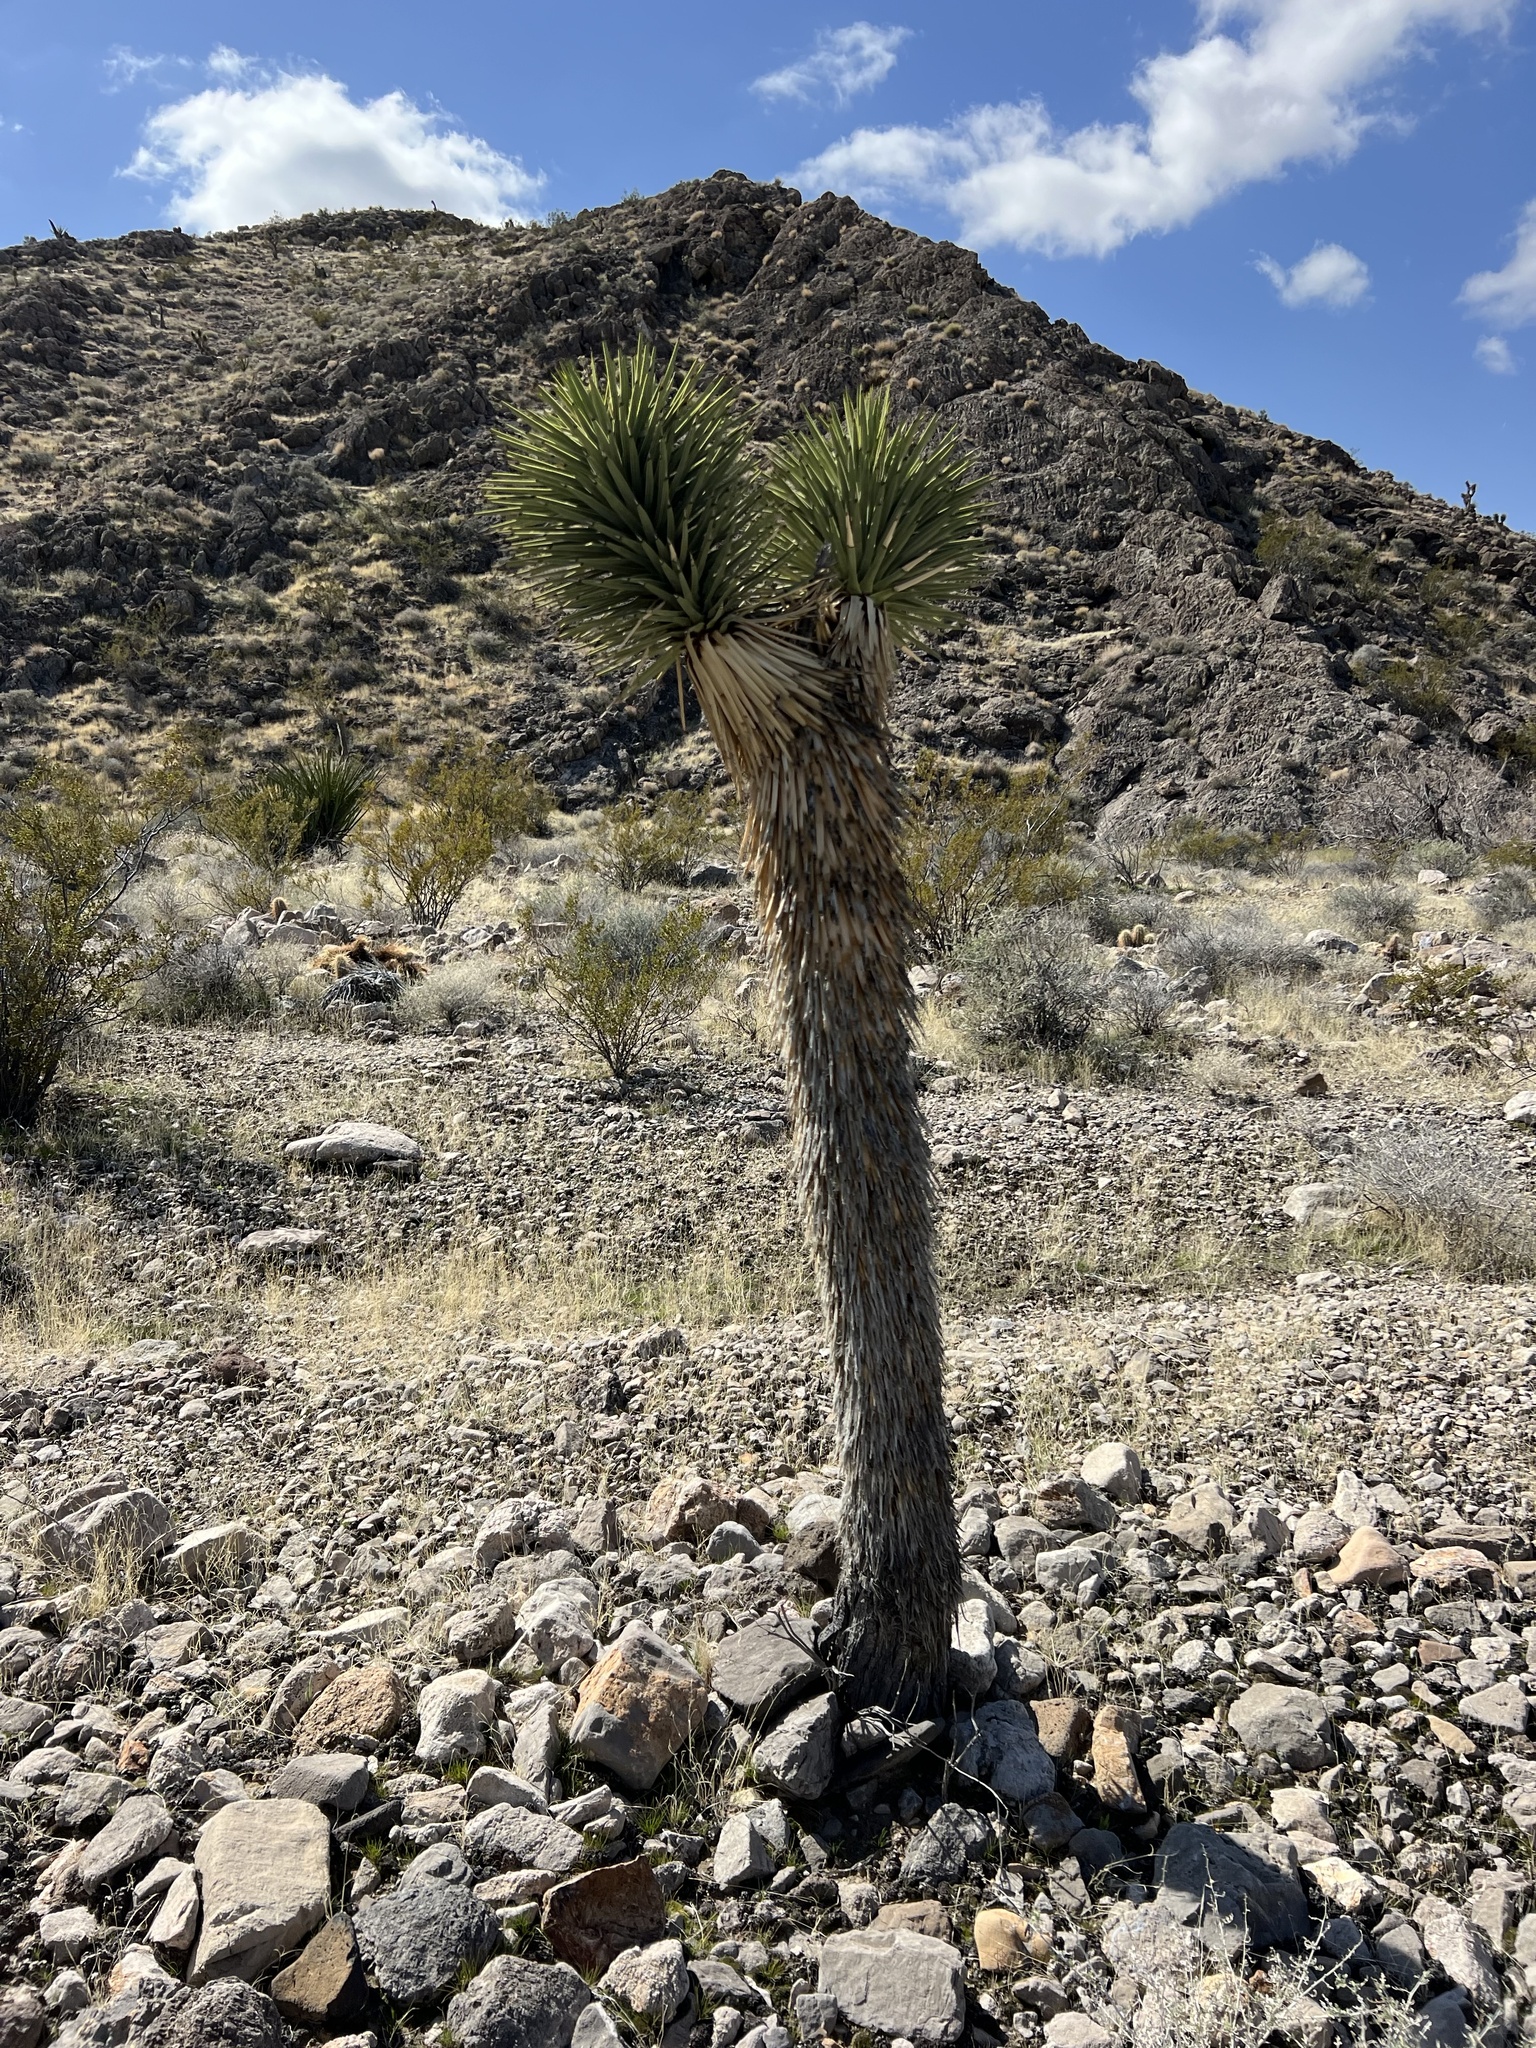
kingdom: Plantae
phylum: Tracheophyta
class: Liliopsida
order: Asparagales
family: Asparagaceae
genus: Yucca
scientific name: Yucca brevifolia
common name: Joshua tree
